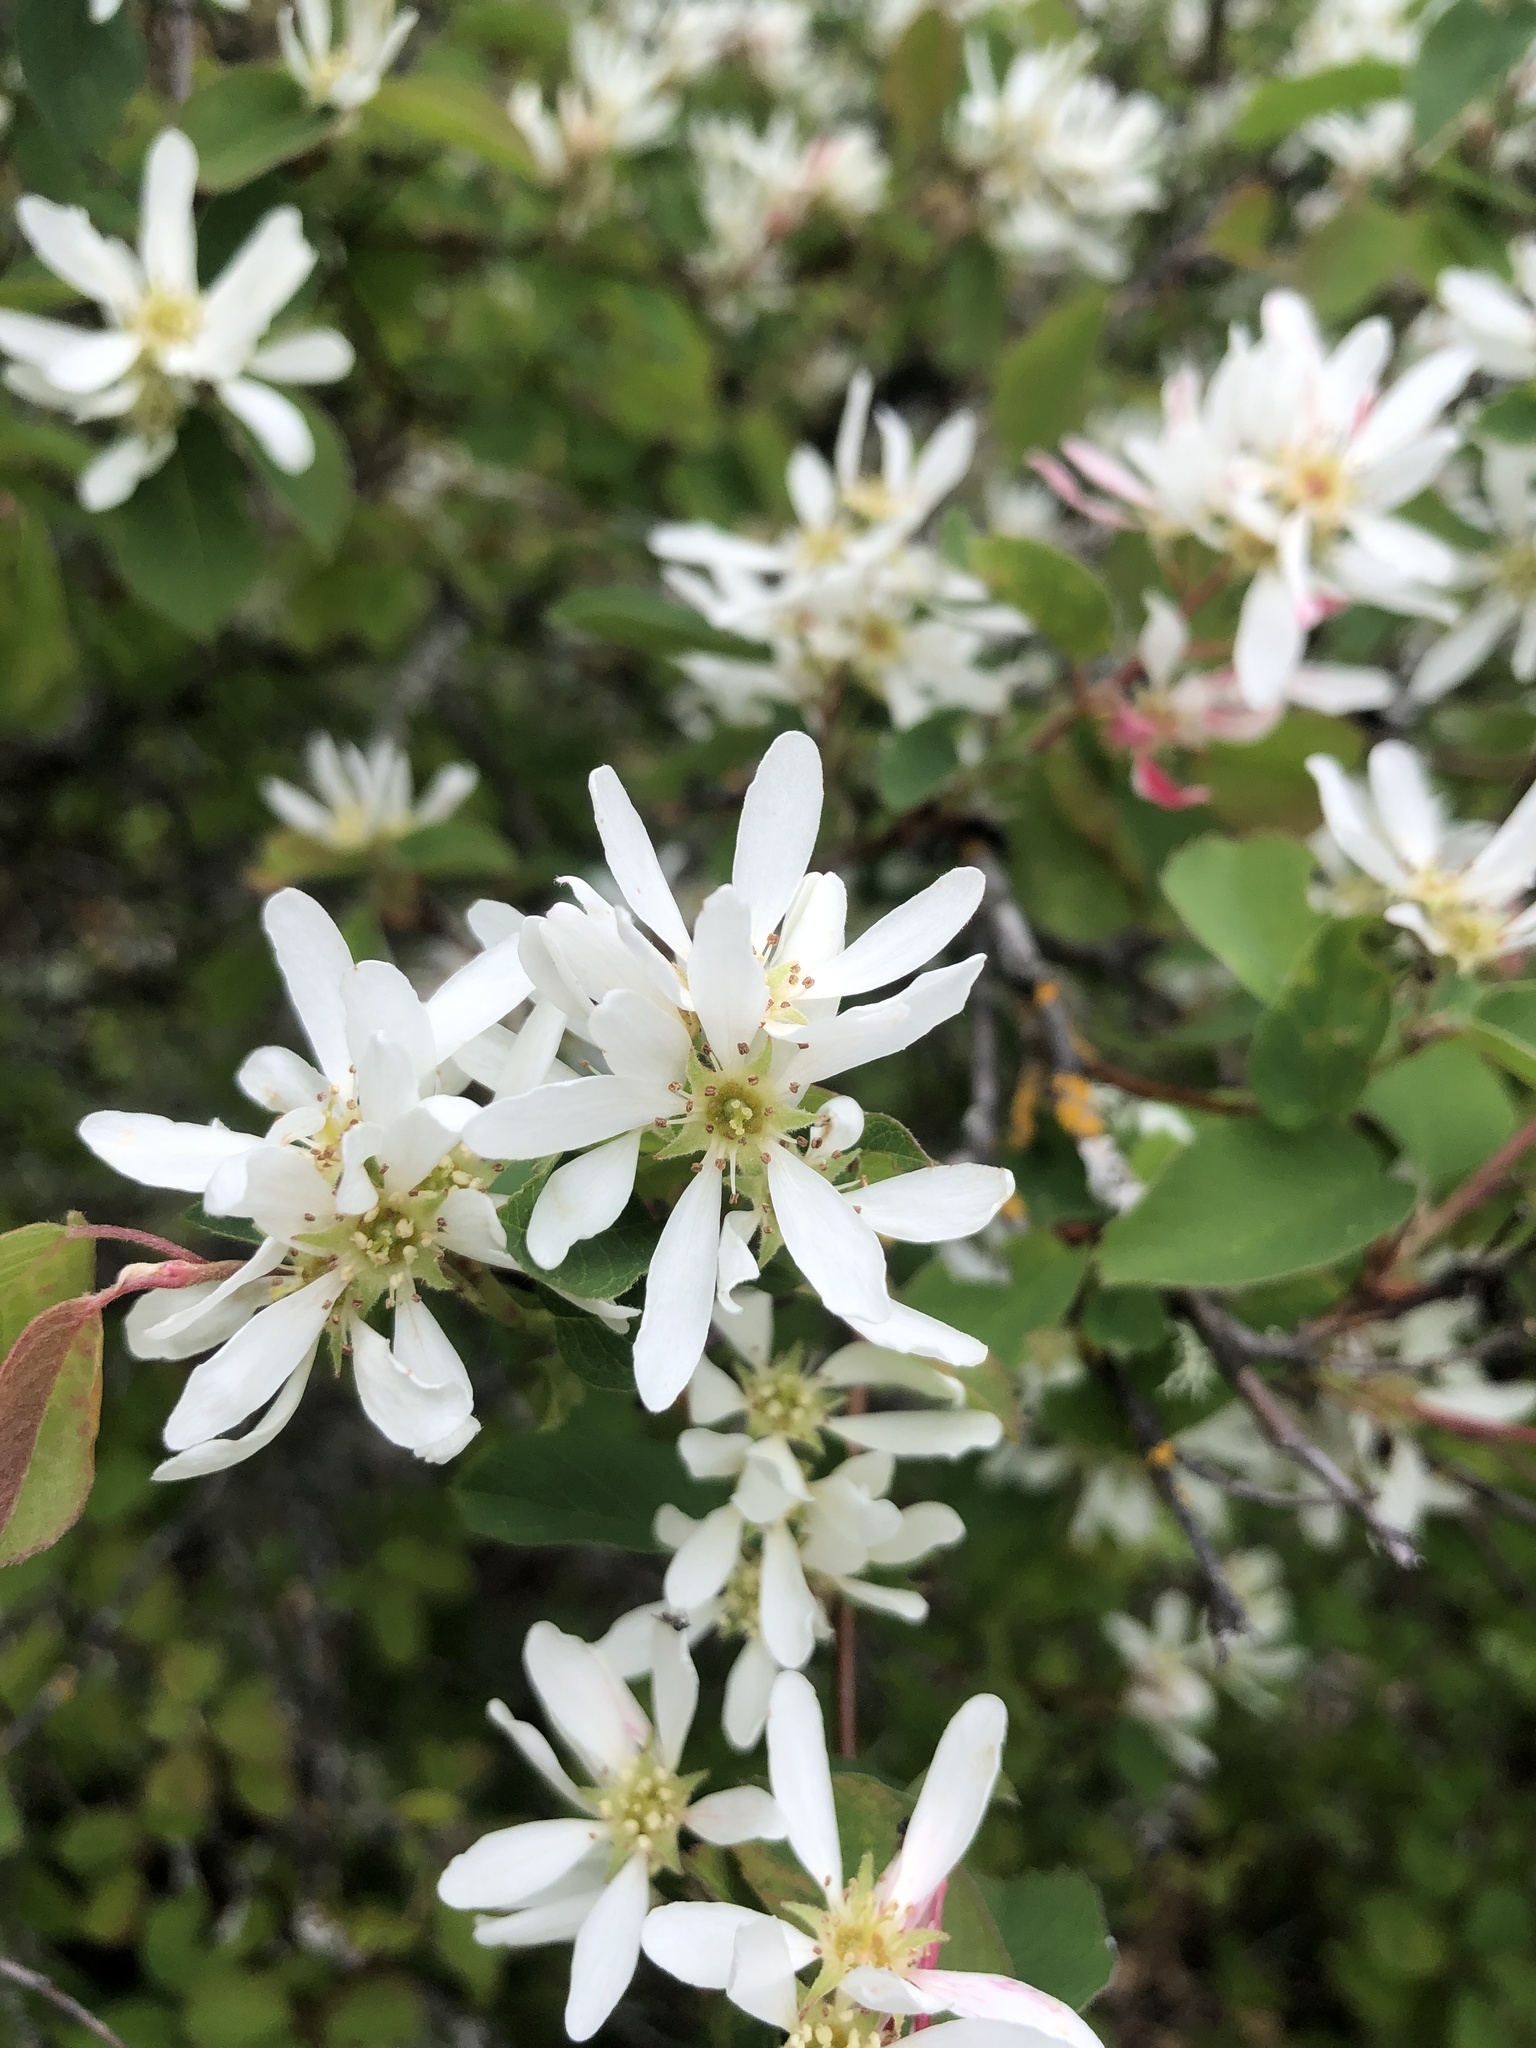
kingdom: Plantae
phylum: Tracheophyta
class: Magnoliopsida
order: Rosales
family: Rosaceae
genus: Amelanchier
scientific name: Amelanchier alnifolia
